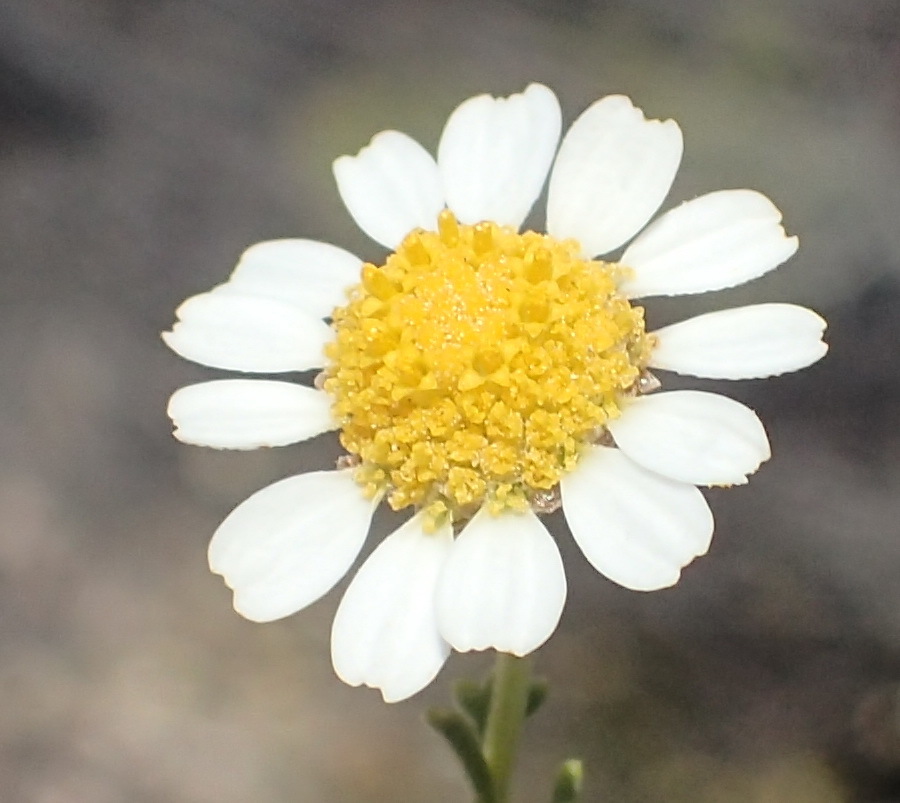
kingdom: Plantae
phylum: Tracheophyta
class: Magnoliopsida
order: Asterales
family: Asteraceae
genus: Cymbopappus
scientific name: Cymbopappus adenosolen
